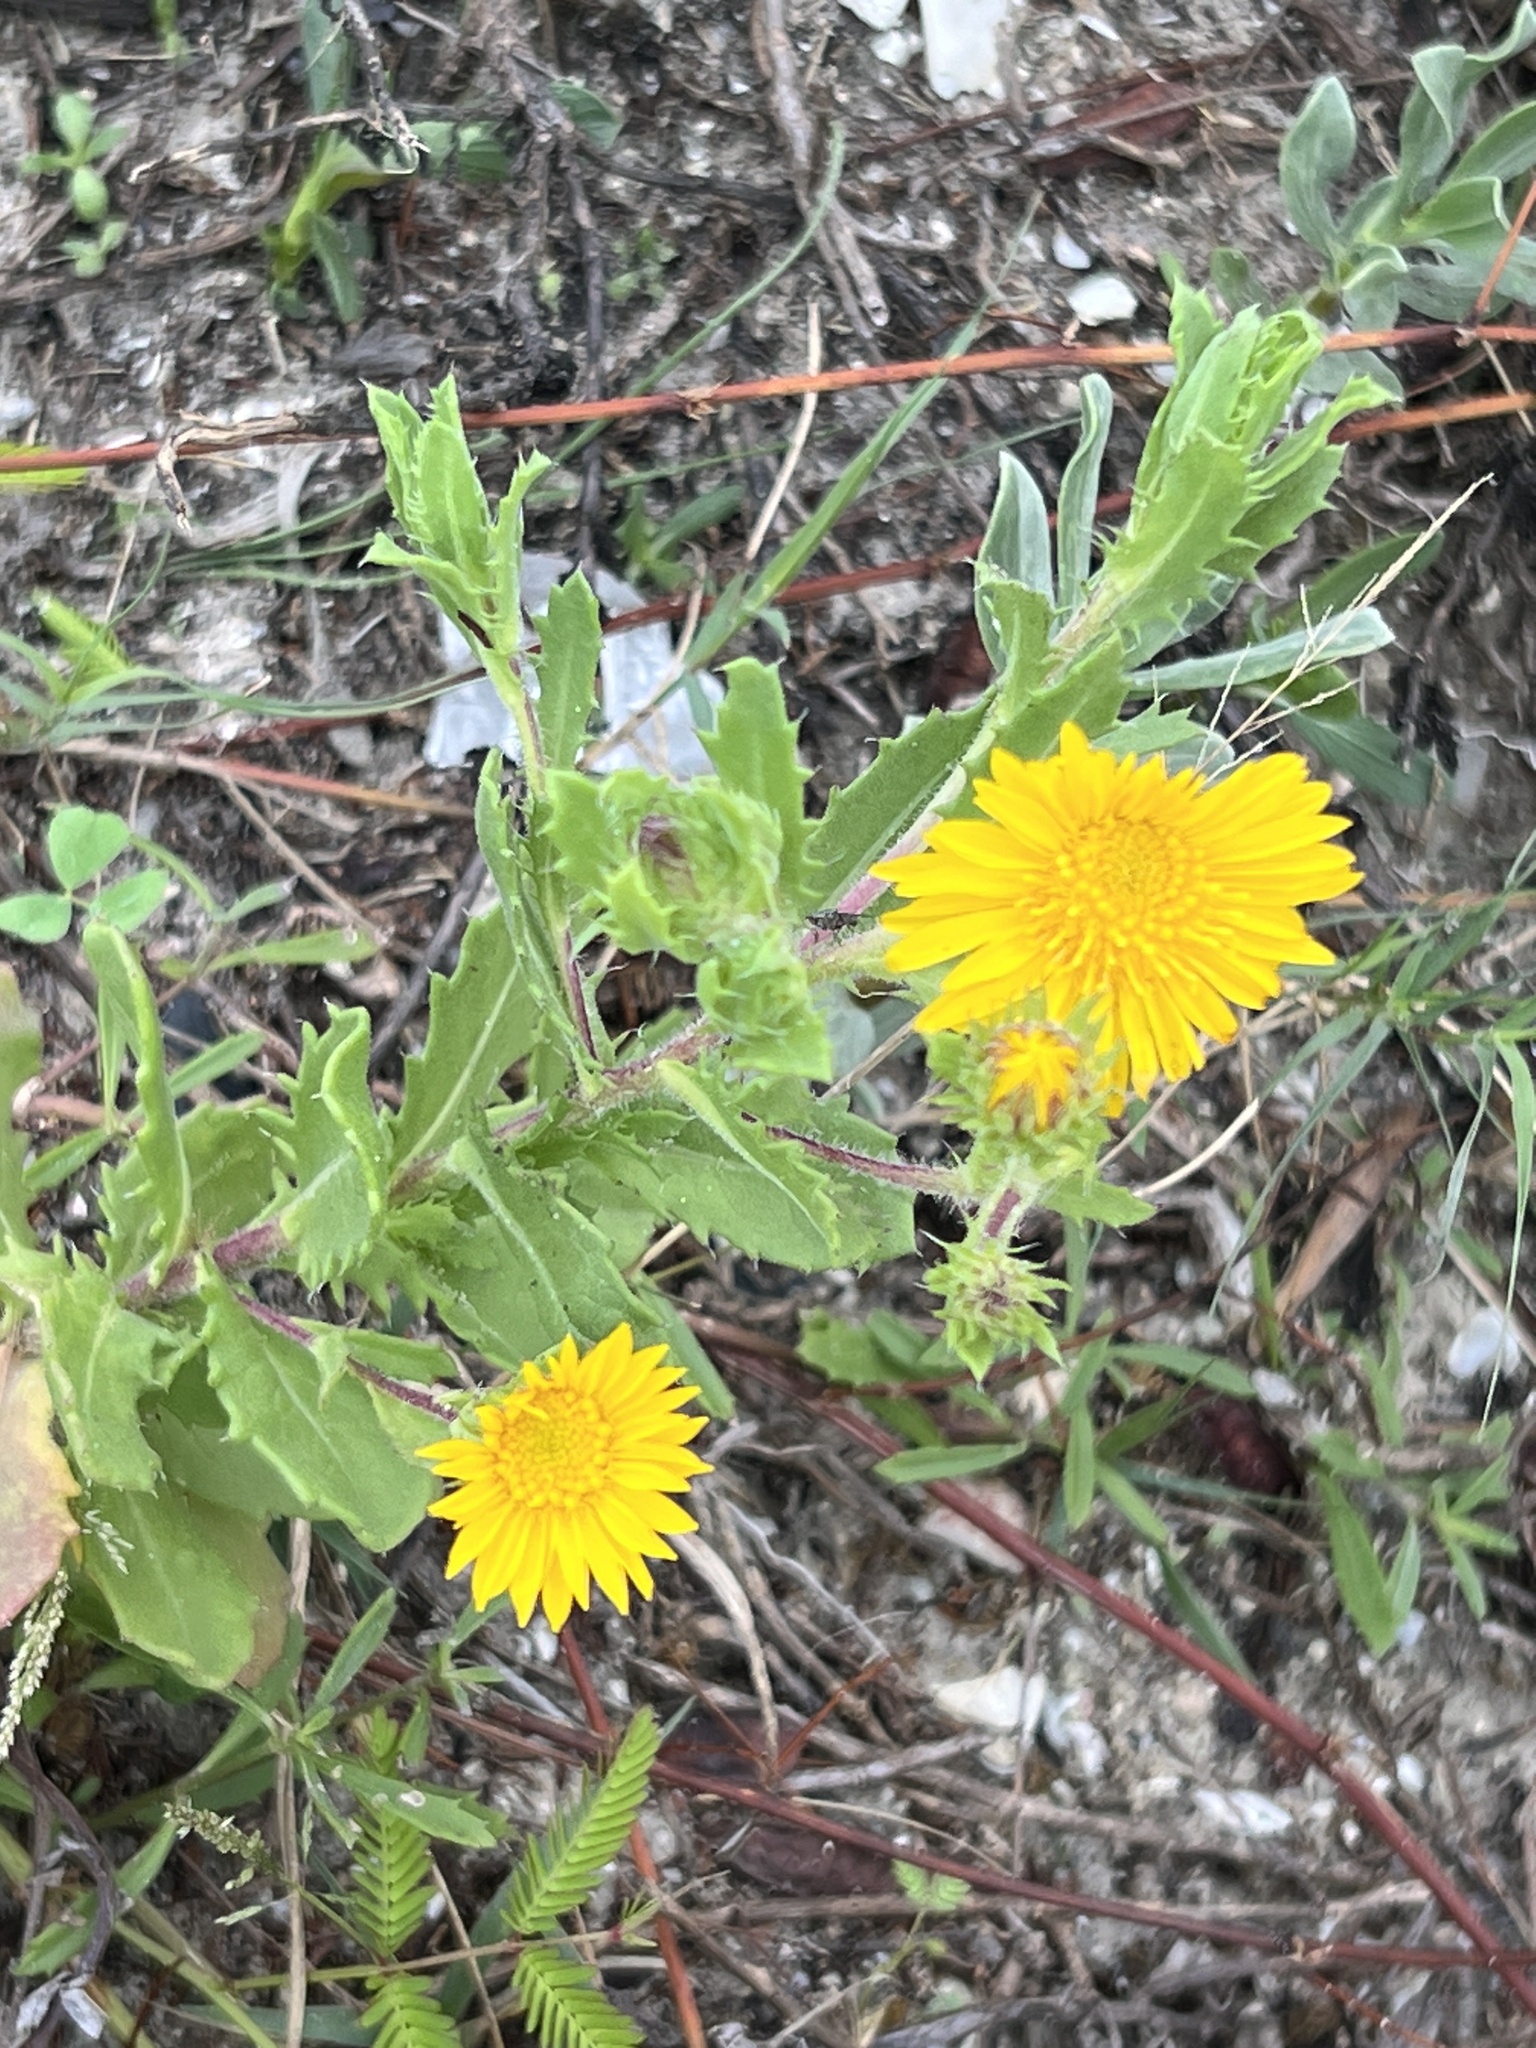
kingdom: Plantae
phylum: Tracheophyta
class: Magnoliopsida
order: Asterales
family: Asteraceae
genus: Rayjacksonia
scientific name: Rayjacksonia phyllocephala
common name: Gulf coast camphor daisy
